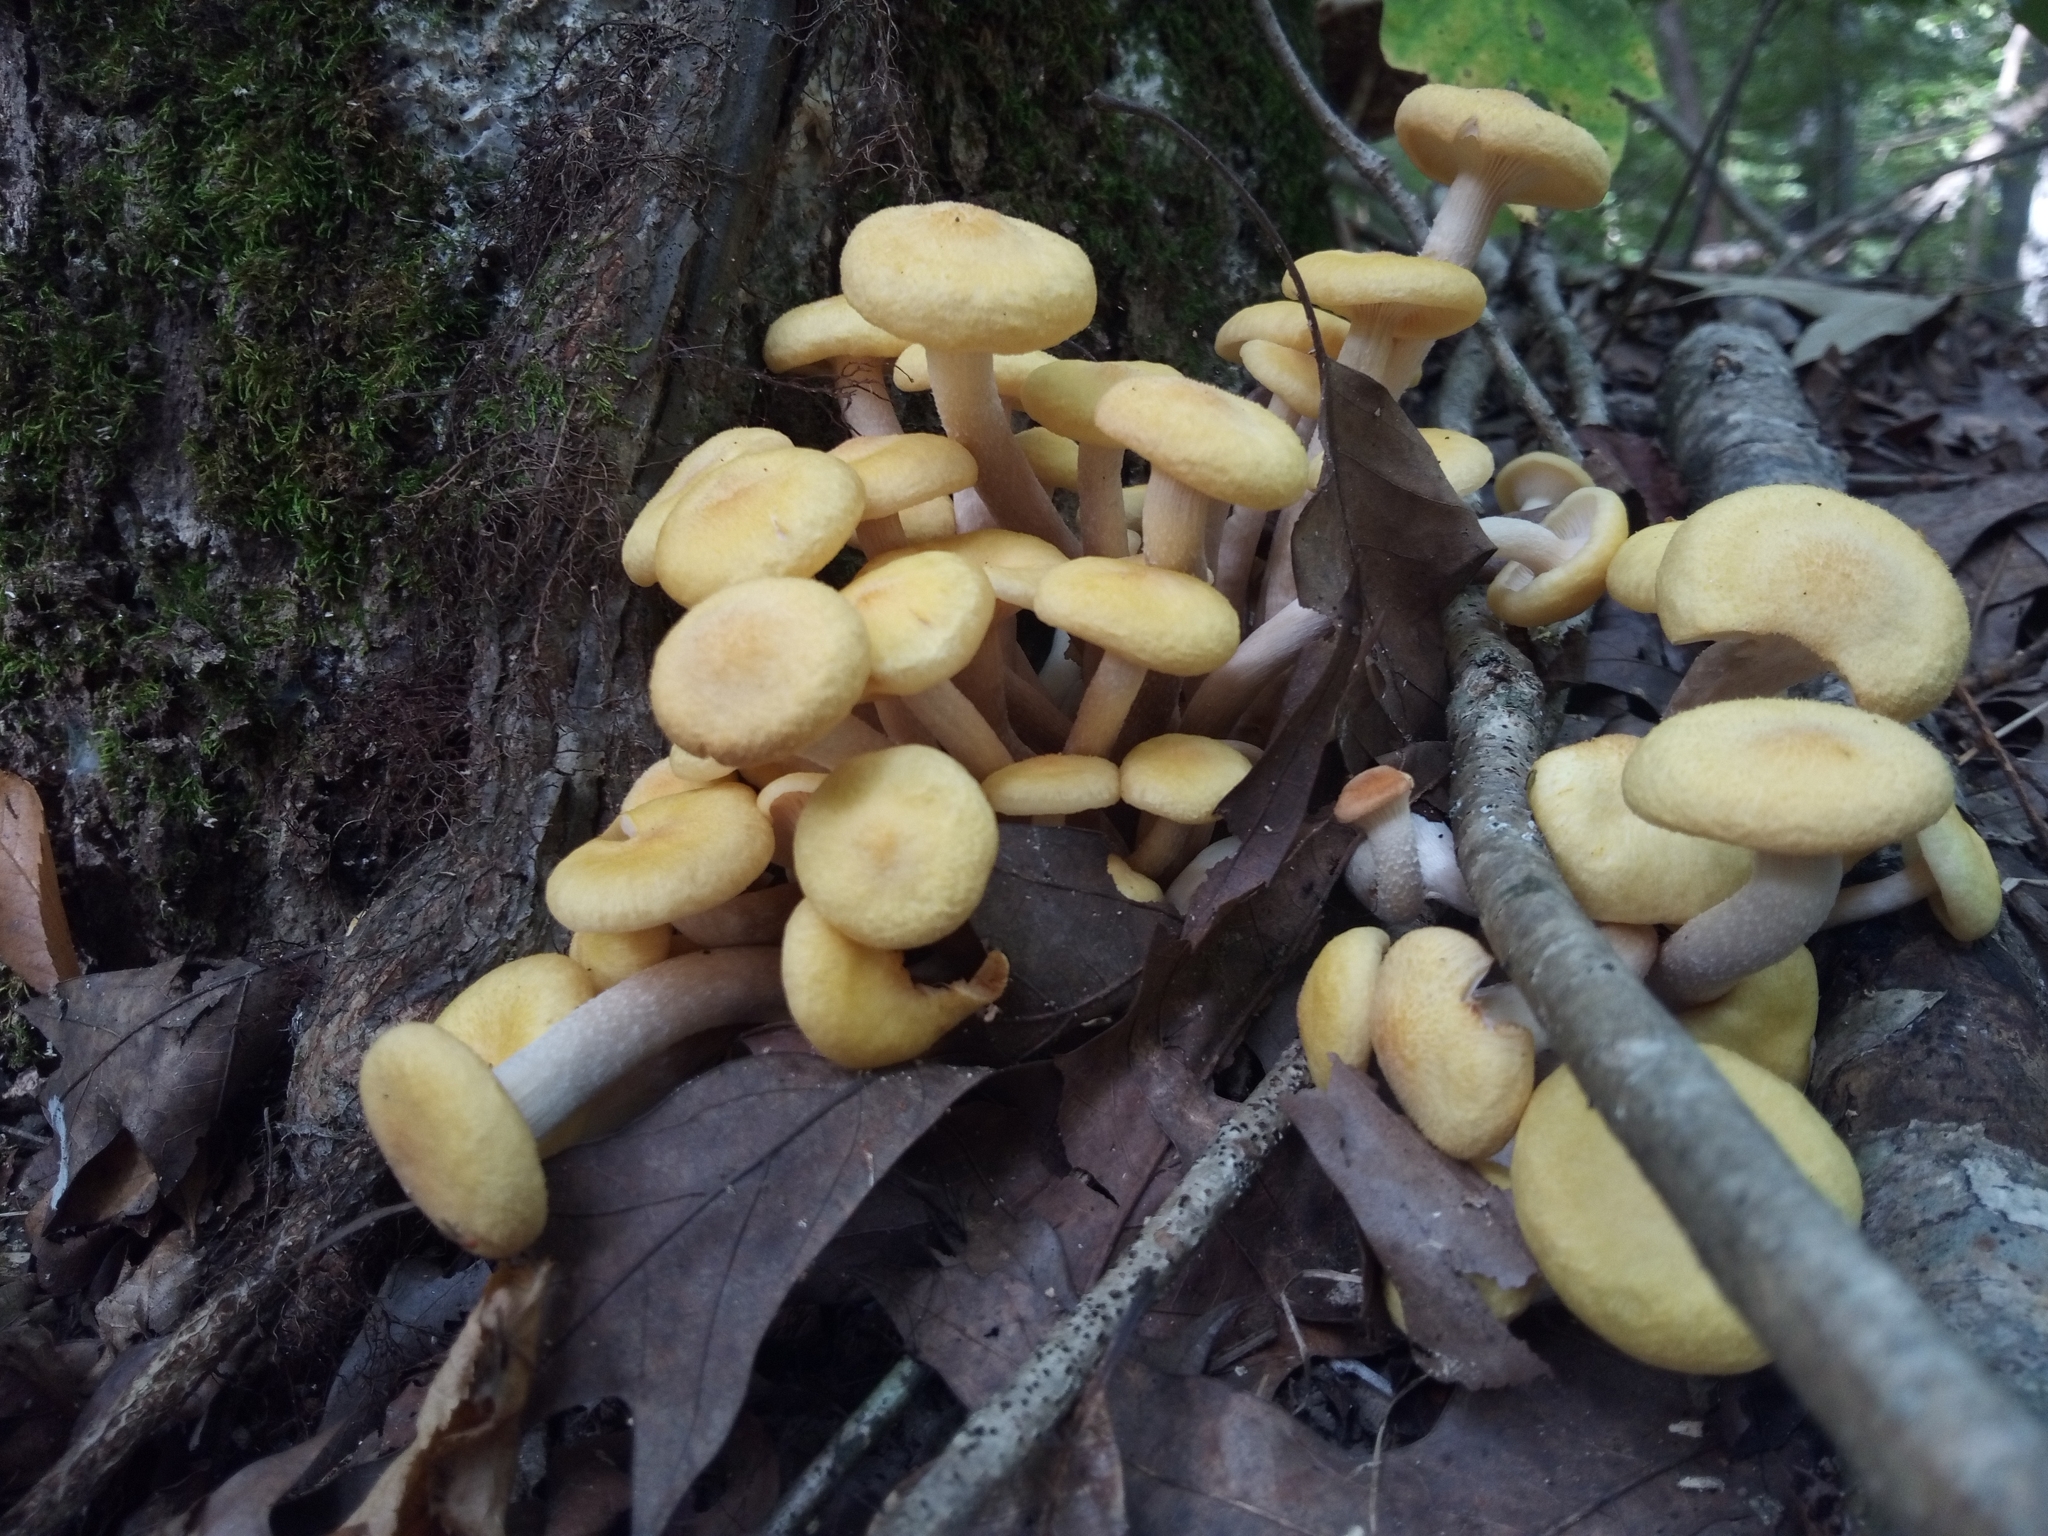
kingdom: Fungi
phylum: Basidiomycota
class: Agaricomycetes
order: Agaricales
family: Physalacriaceae
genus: Desarmillaria
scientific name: Desarmillaria caespitosa
